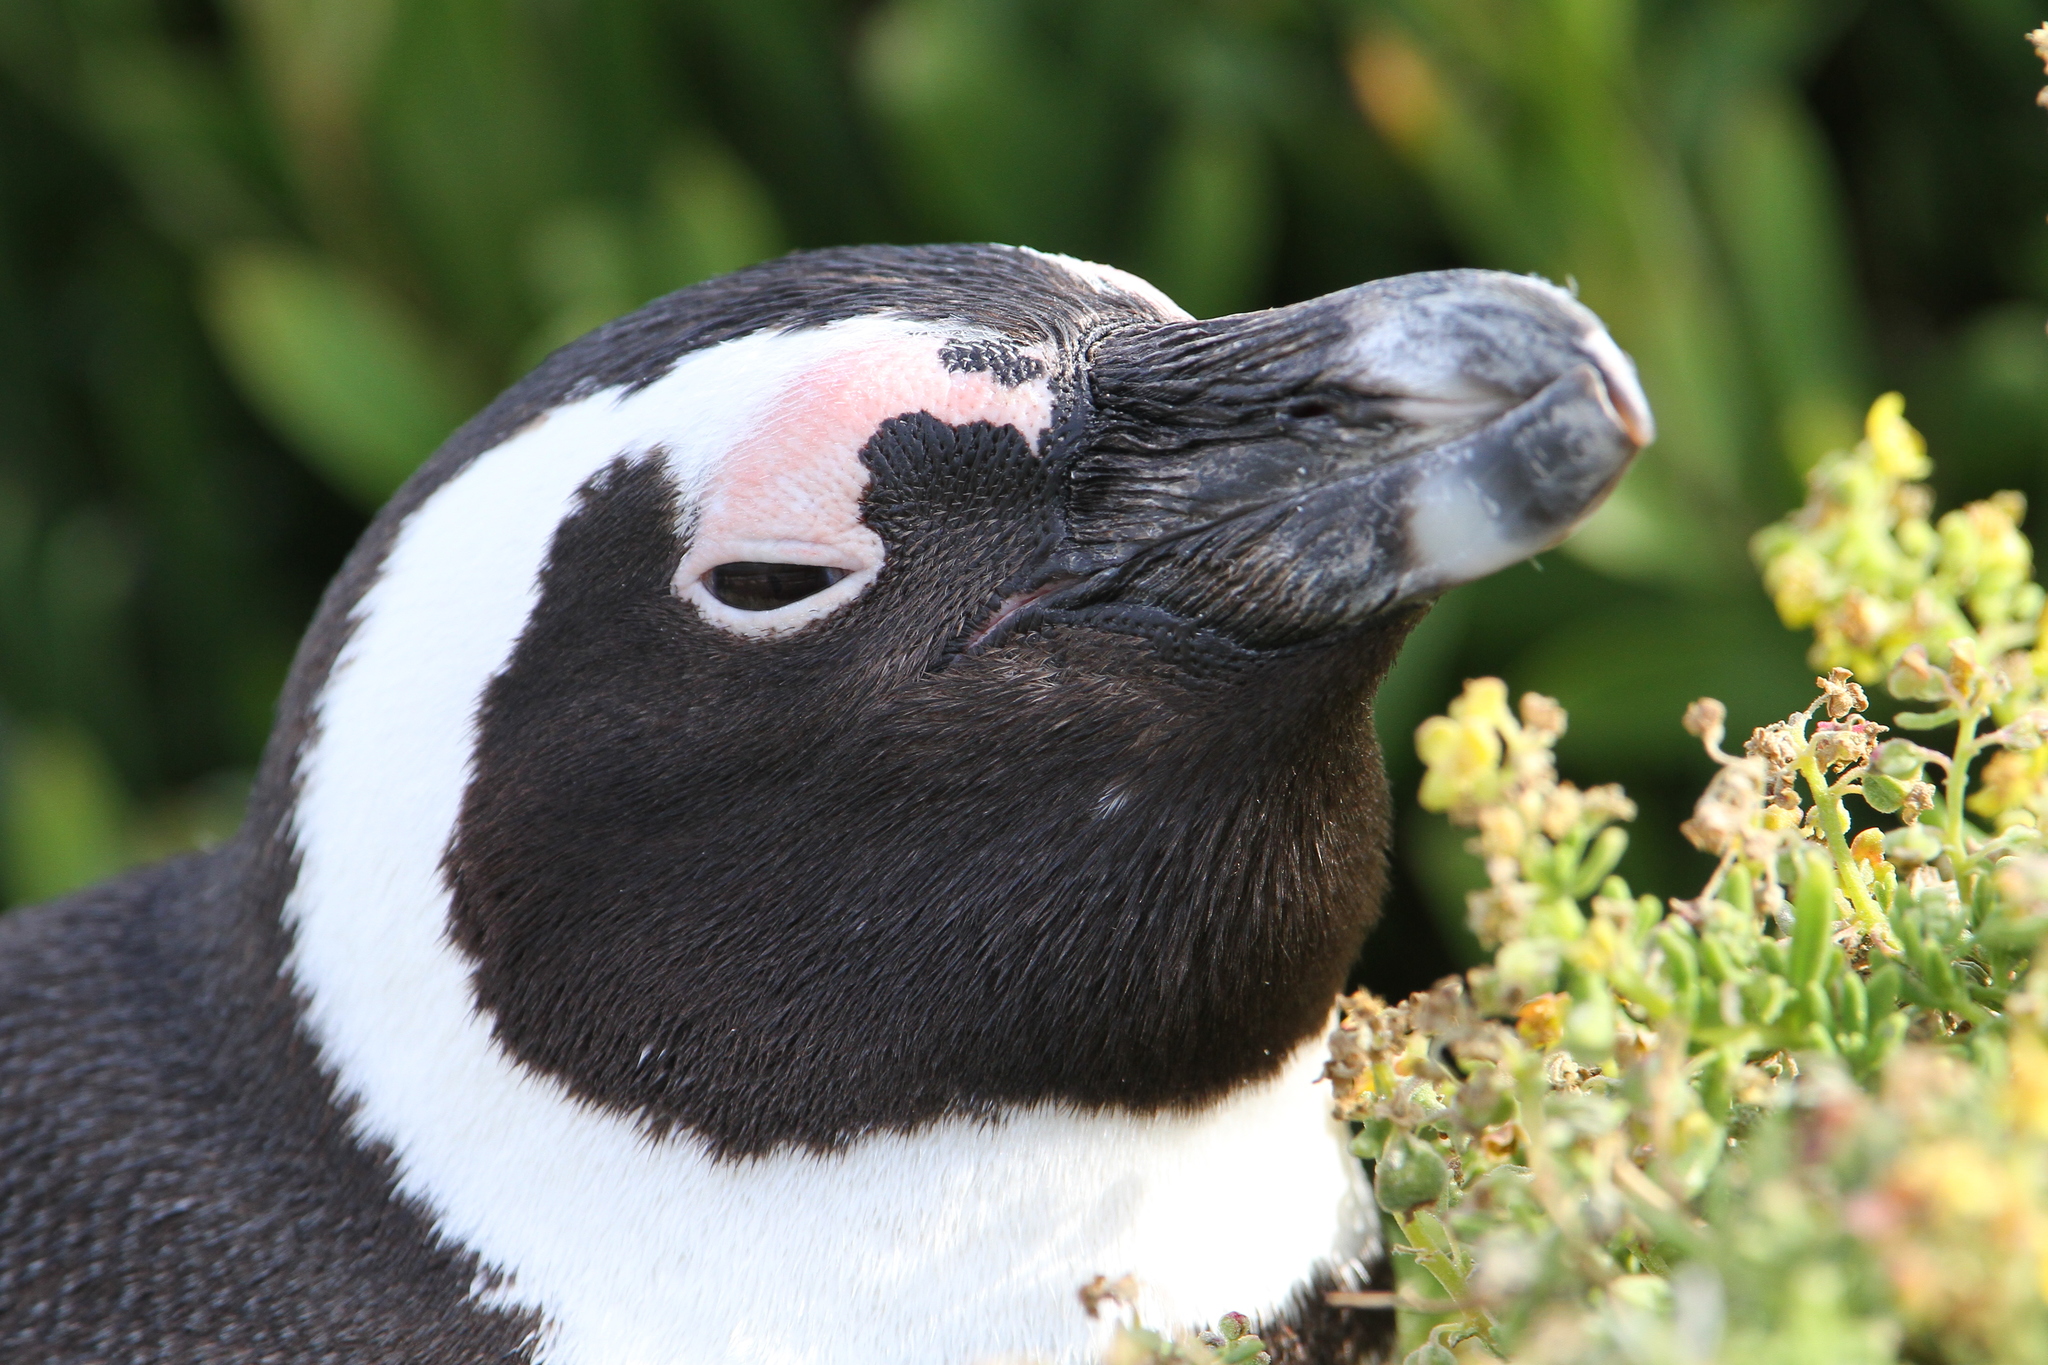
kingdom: Animalia
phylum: Chordata
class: Aves
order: Sphenisciformes
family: Spheniscidae
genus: Spheniscus
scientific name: Spheniscus demersus
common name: African penguin
